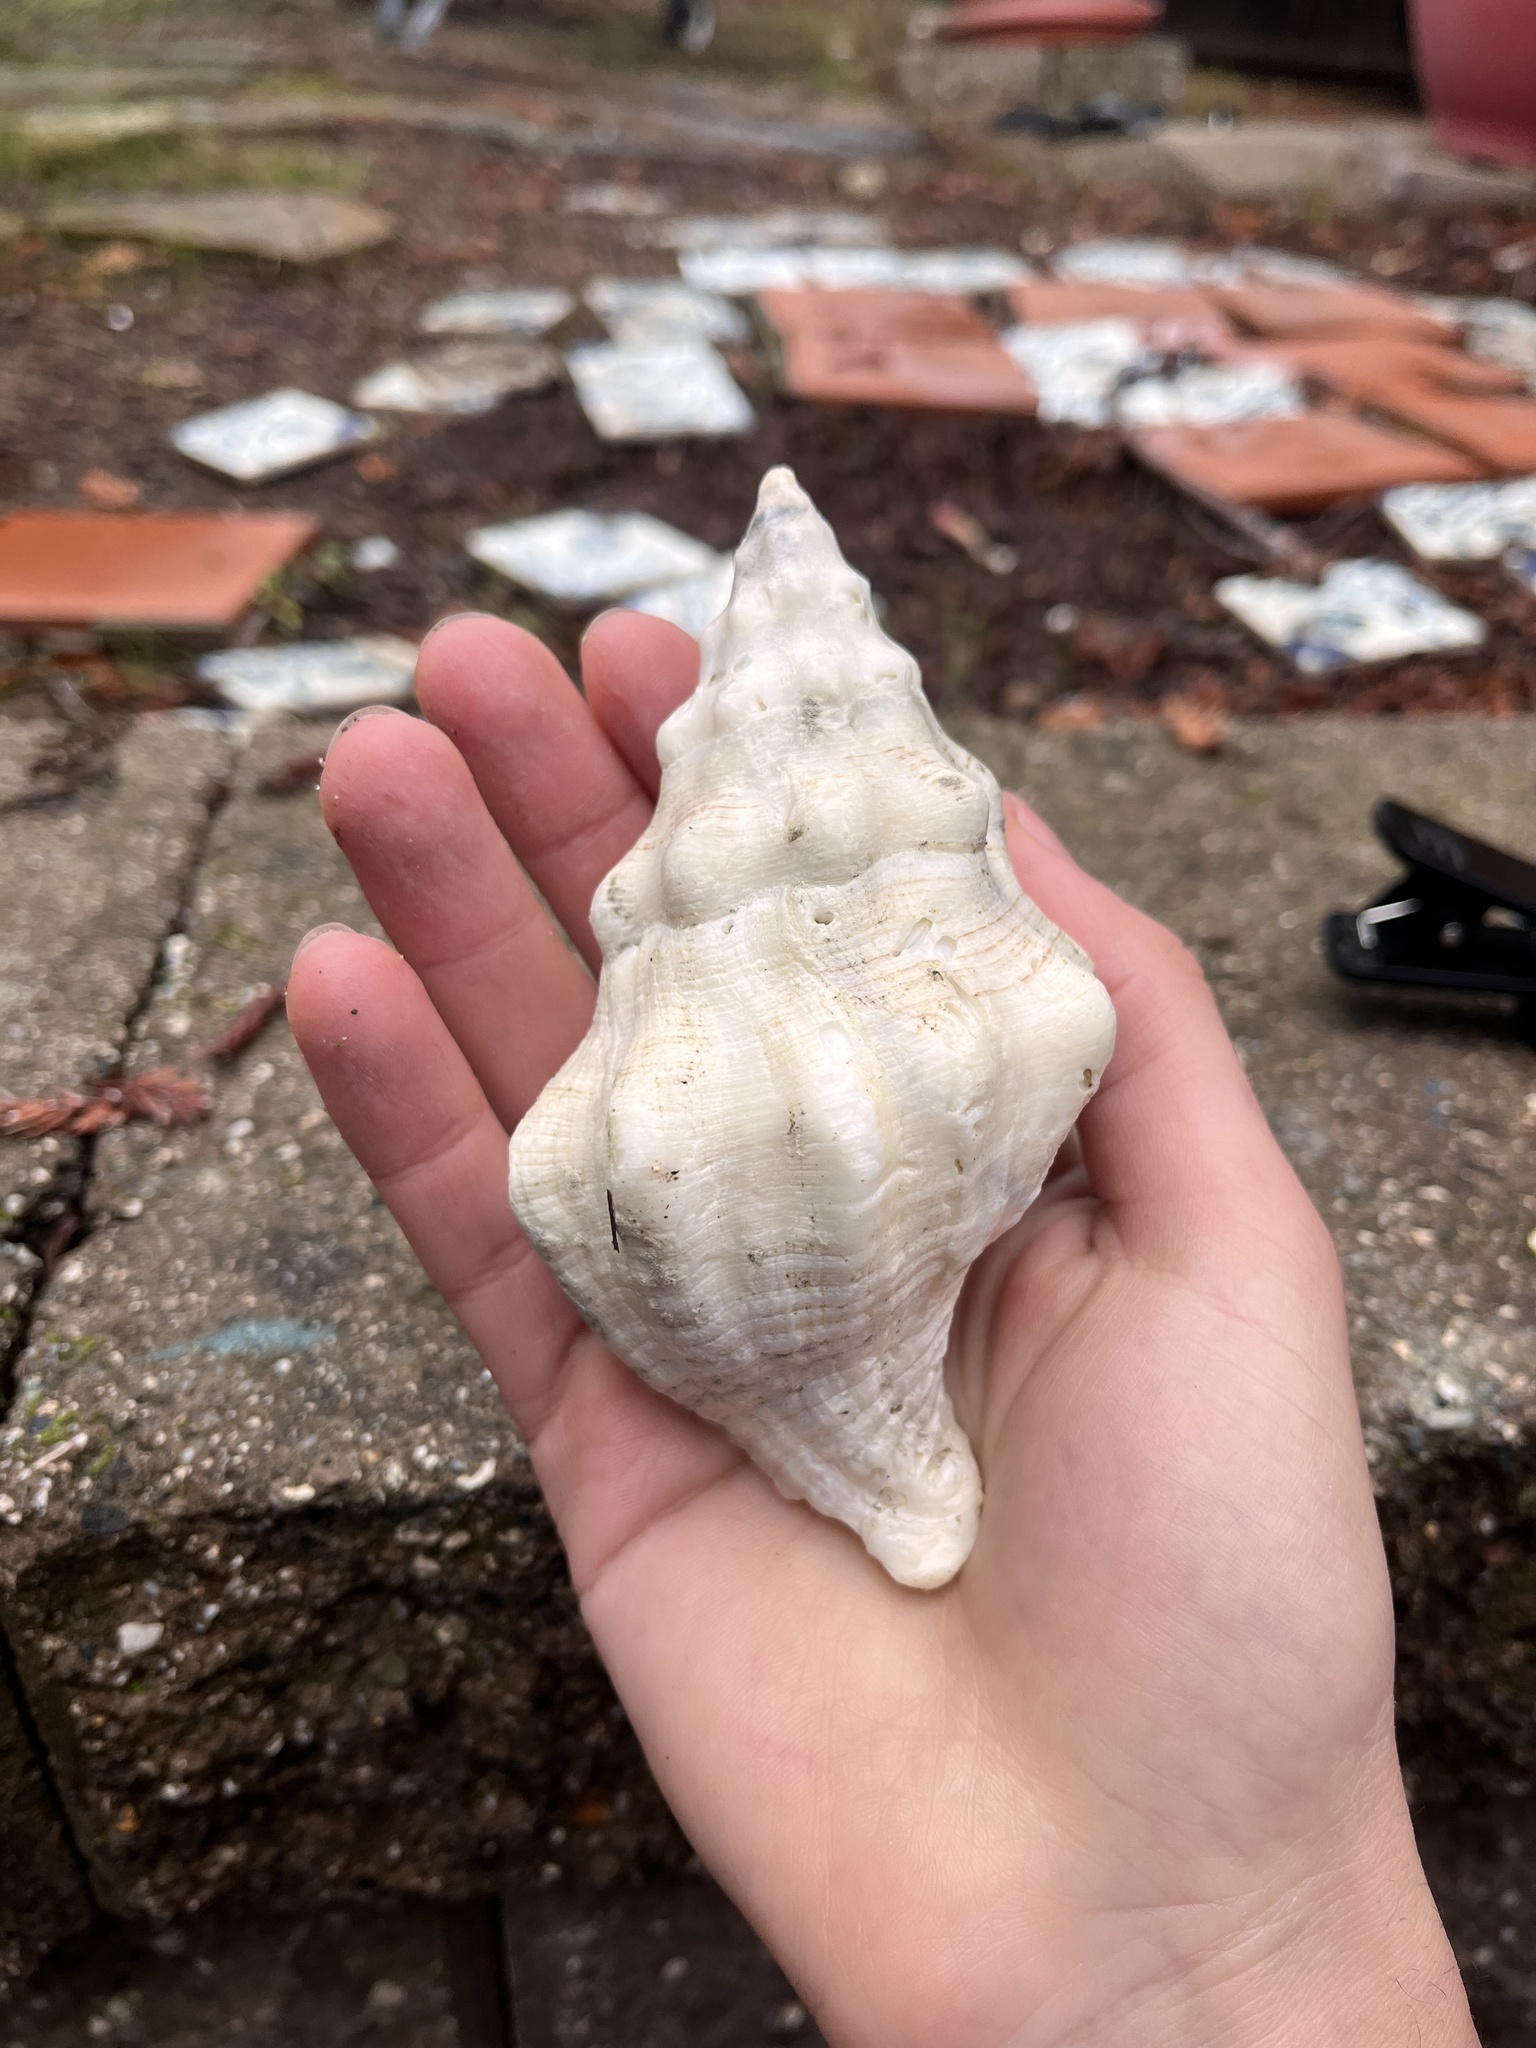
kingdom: Animalia
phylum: Mollusca
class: Gastropoda
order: Neogastropoda
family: Austrosiphonidae
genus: Kelletia
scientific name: Kelletia kelletii
